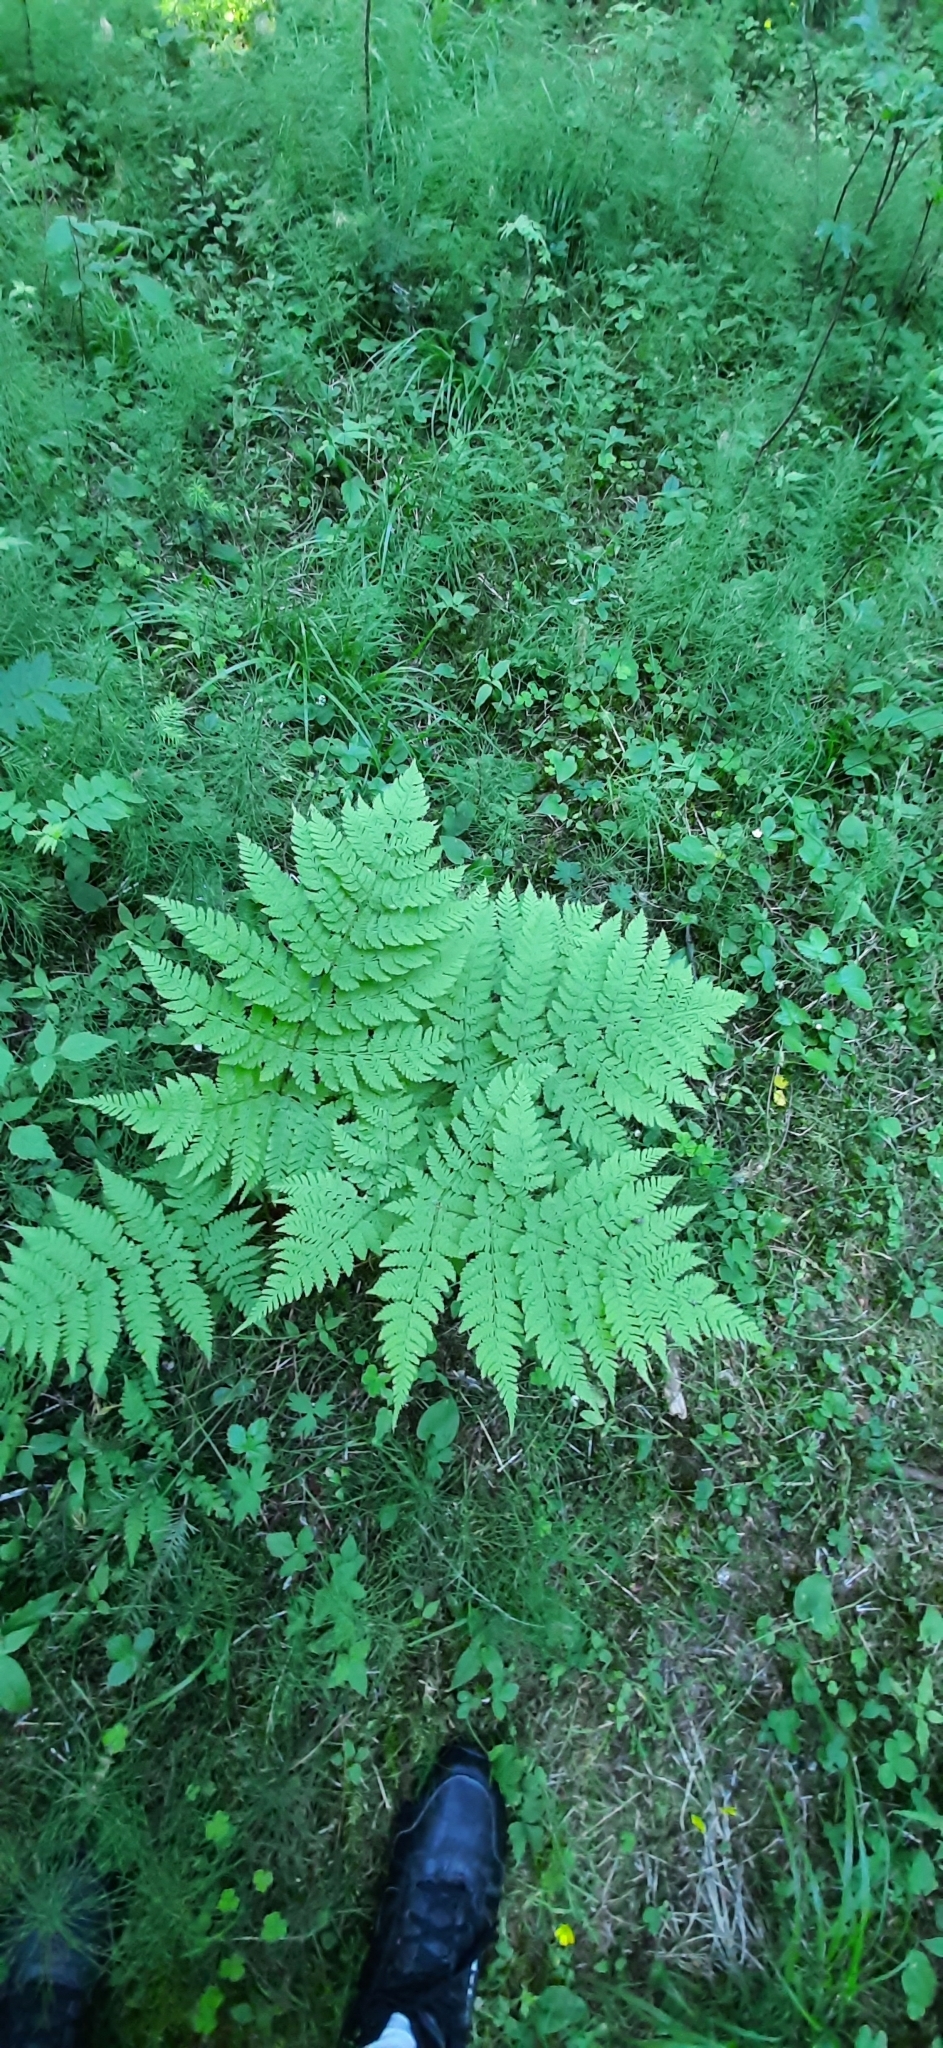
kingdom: Plantae
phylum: Tracheophyta
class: Polypodiopsida
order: Polypodiales
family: Dryopteridaceae
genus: Dryopteris
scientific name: Dryopteris expansa
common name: Northern buckler fern
